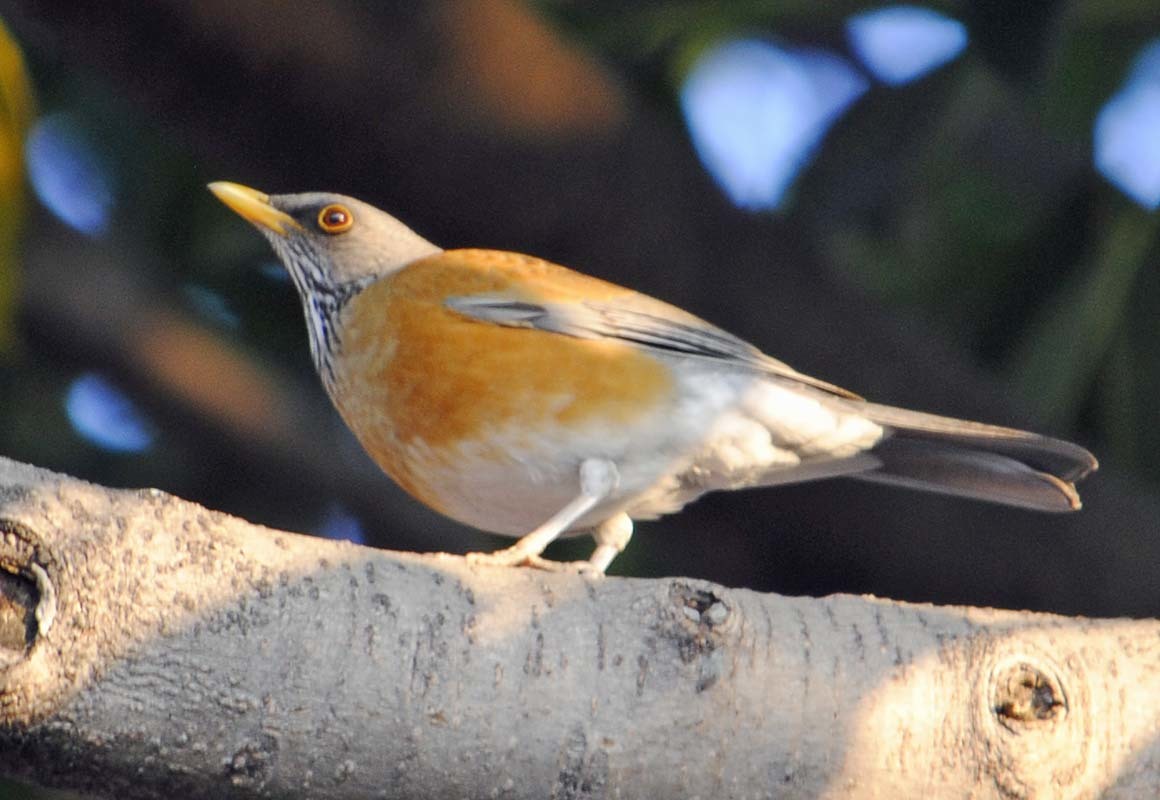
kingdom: Animalia
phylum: Chordata
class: Aves
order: Passeriformes
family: Turdidae
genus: Turdus
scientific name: Turdus rufopalliatus
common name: Rufous-backed robin
